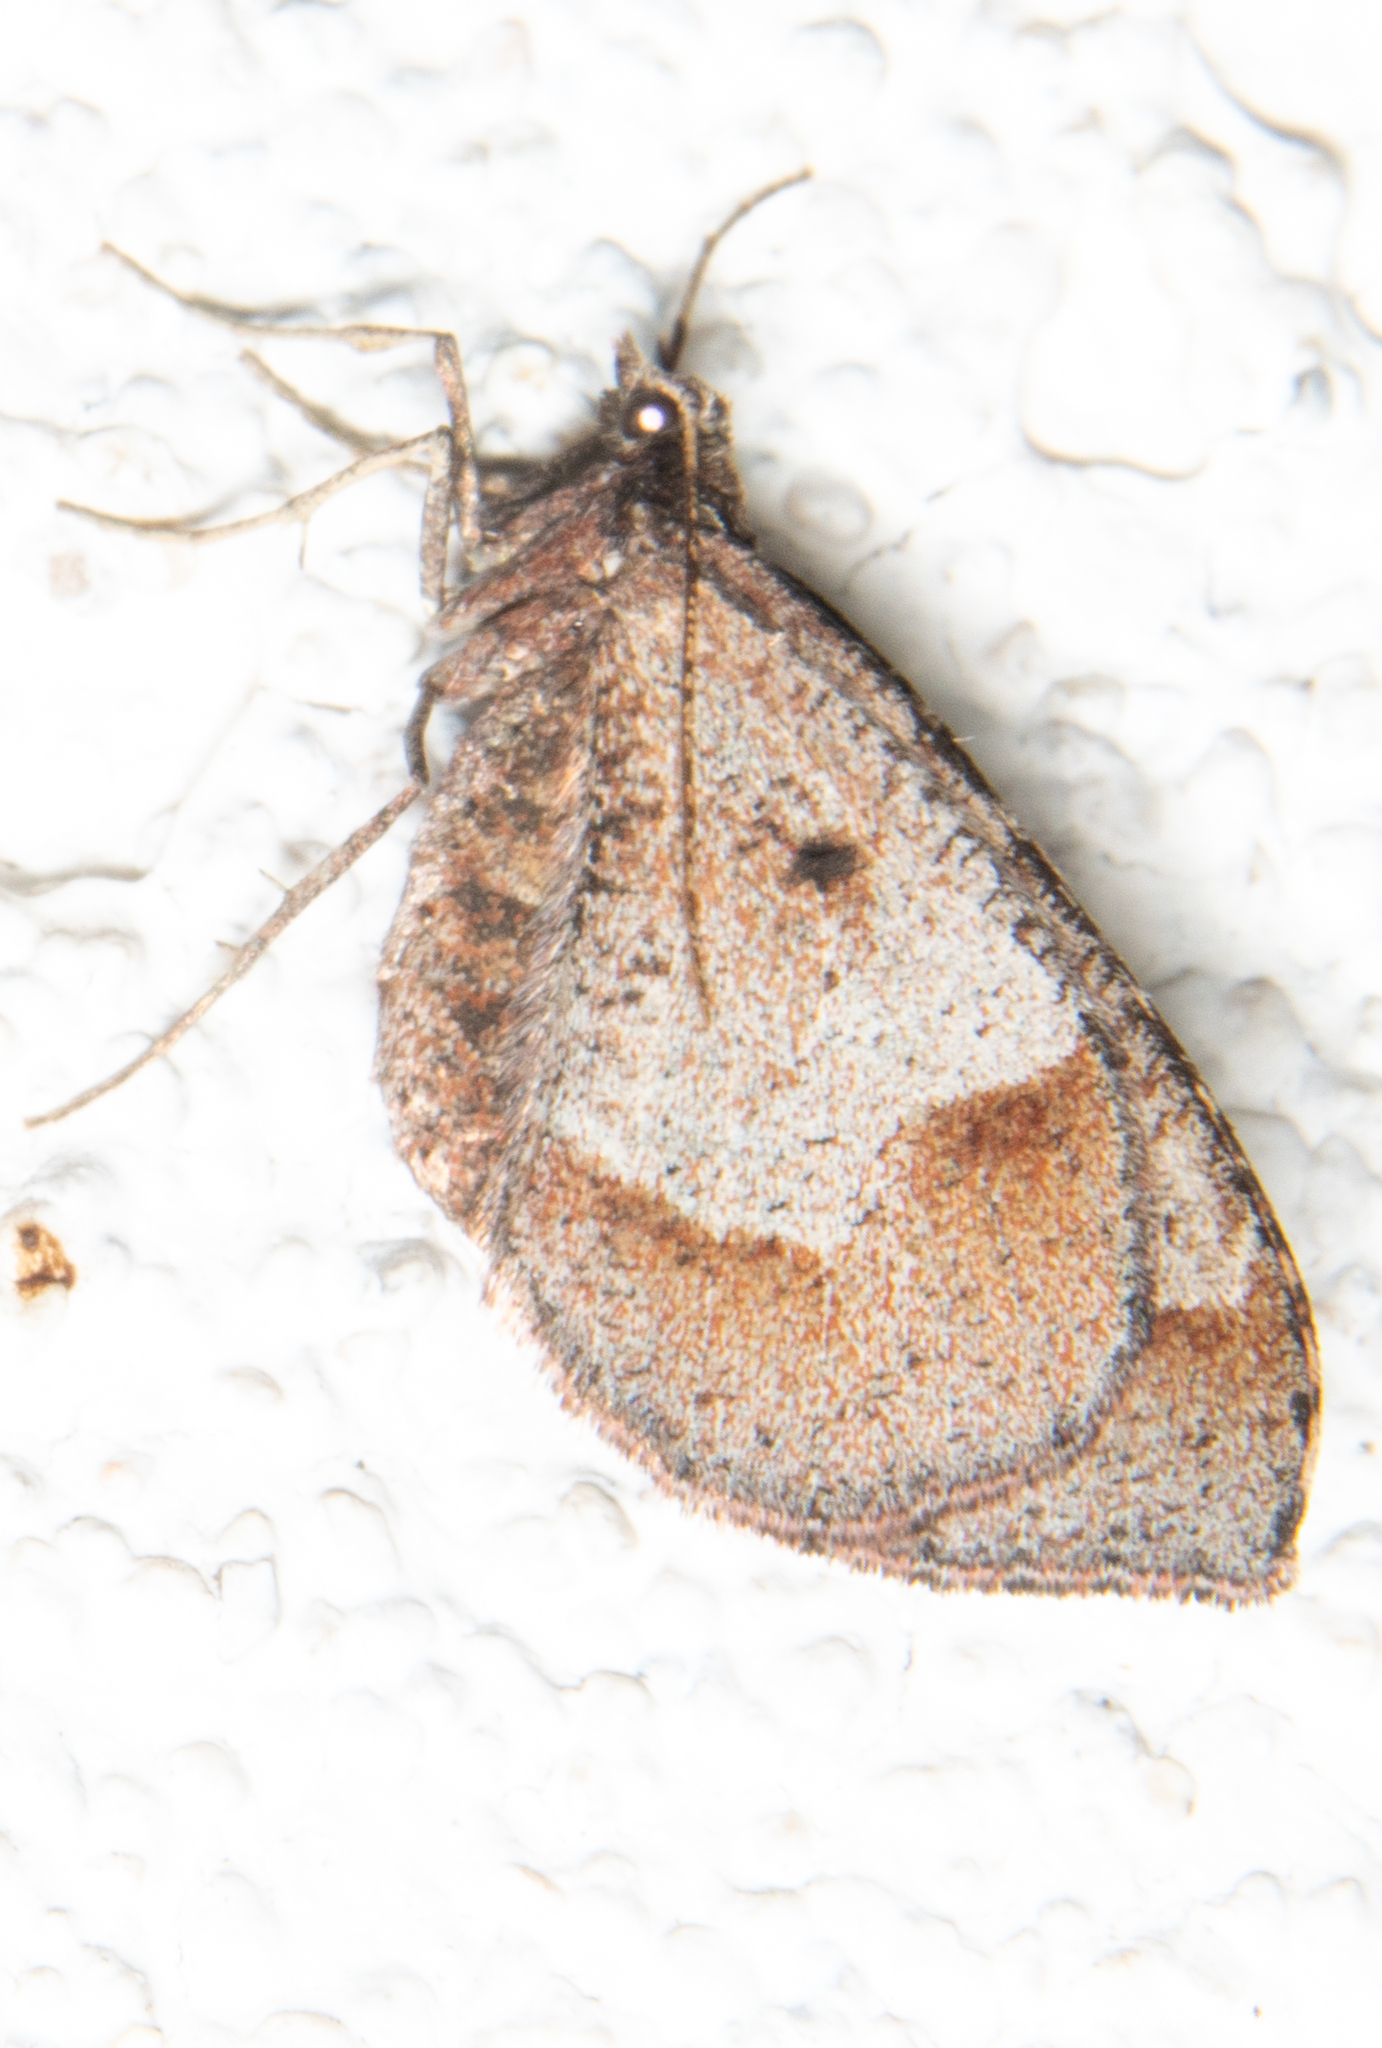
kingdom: Animalia
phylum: Arthropoda
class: Insecta
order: Lepidoptera
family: Geometridae
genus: Stamnodes
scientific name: Stamnodes affiliata
